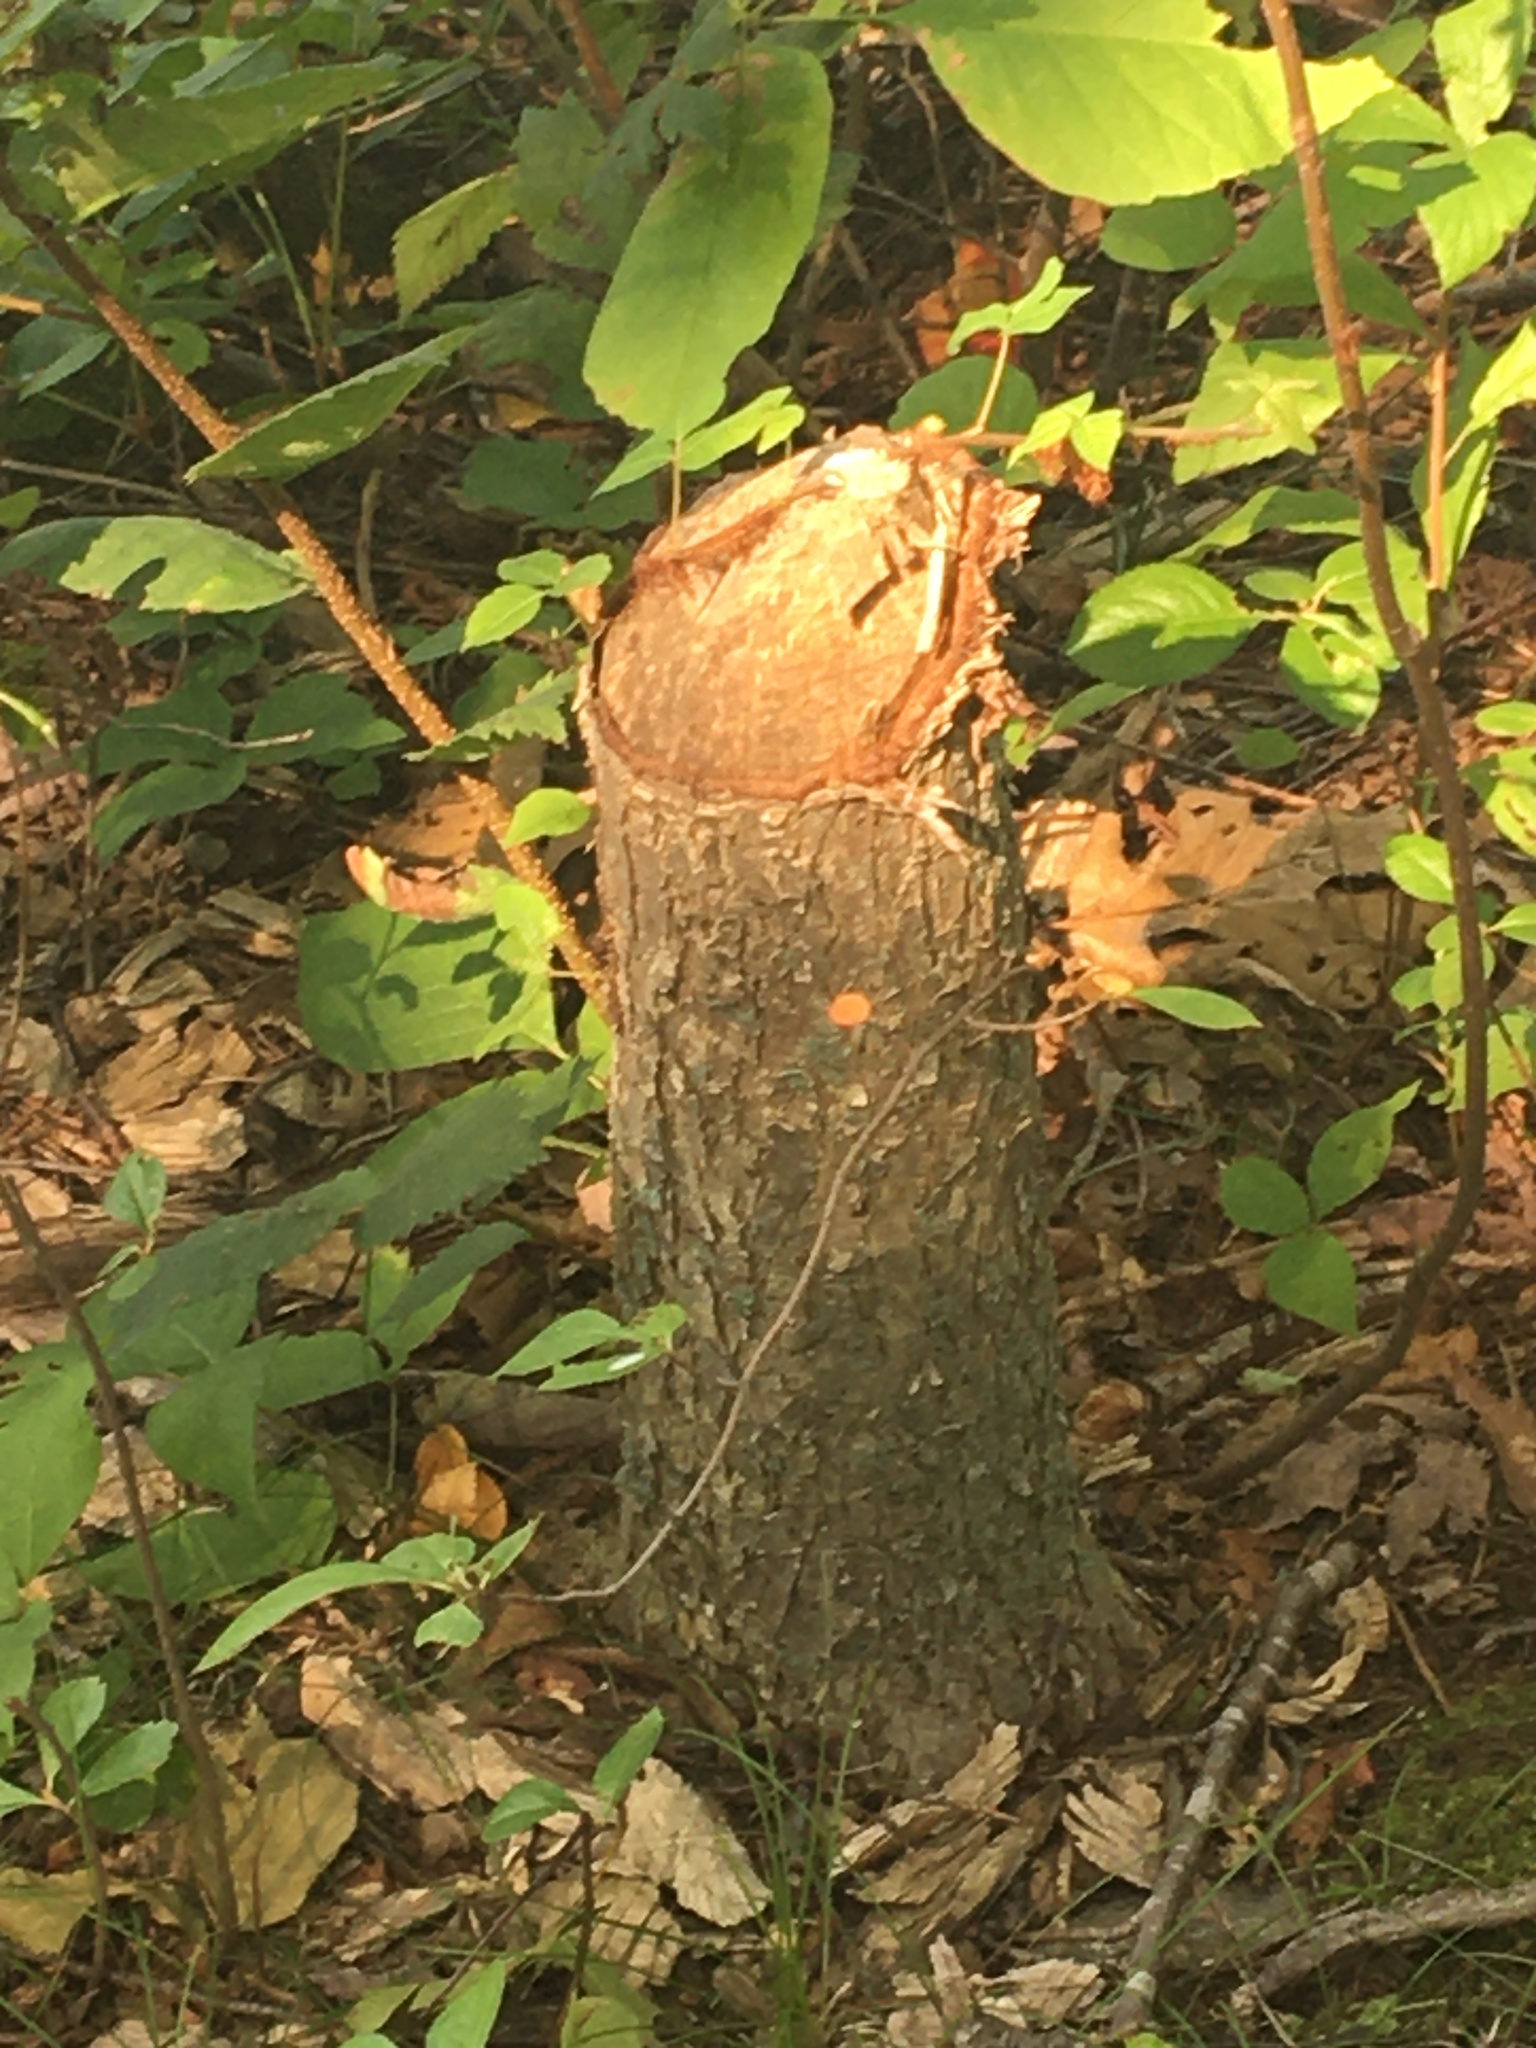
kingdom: Animalia
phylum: Chordata
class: Mammalia
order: Rodentia
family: Castoridae
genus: Castor
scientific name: Castor canadensis
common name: American beaver
